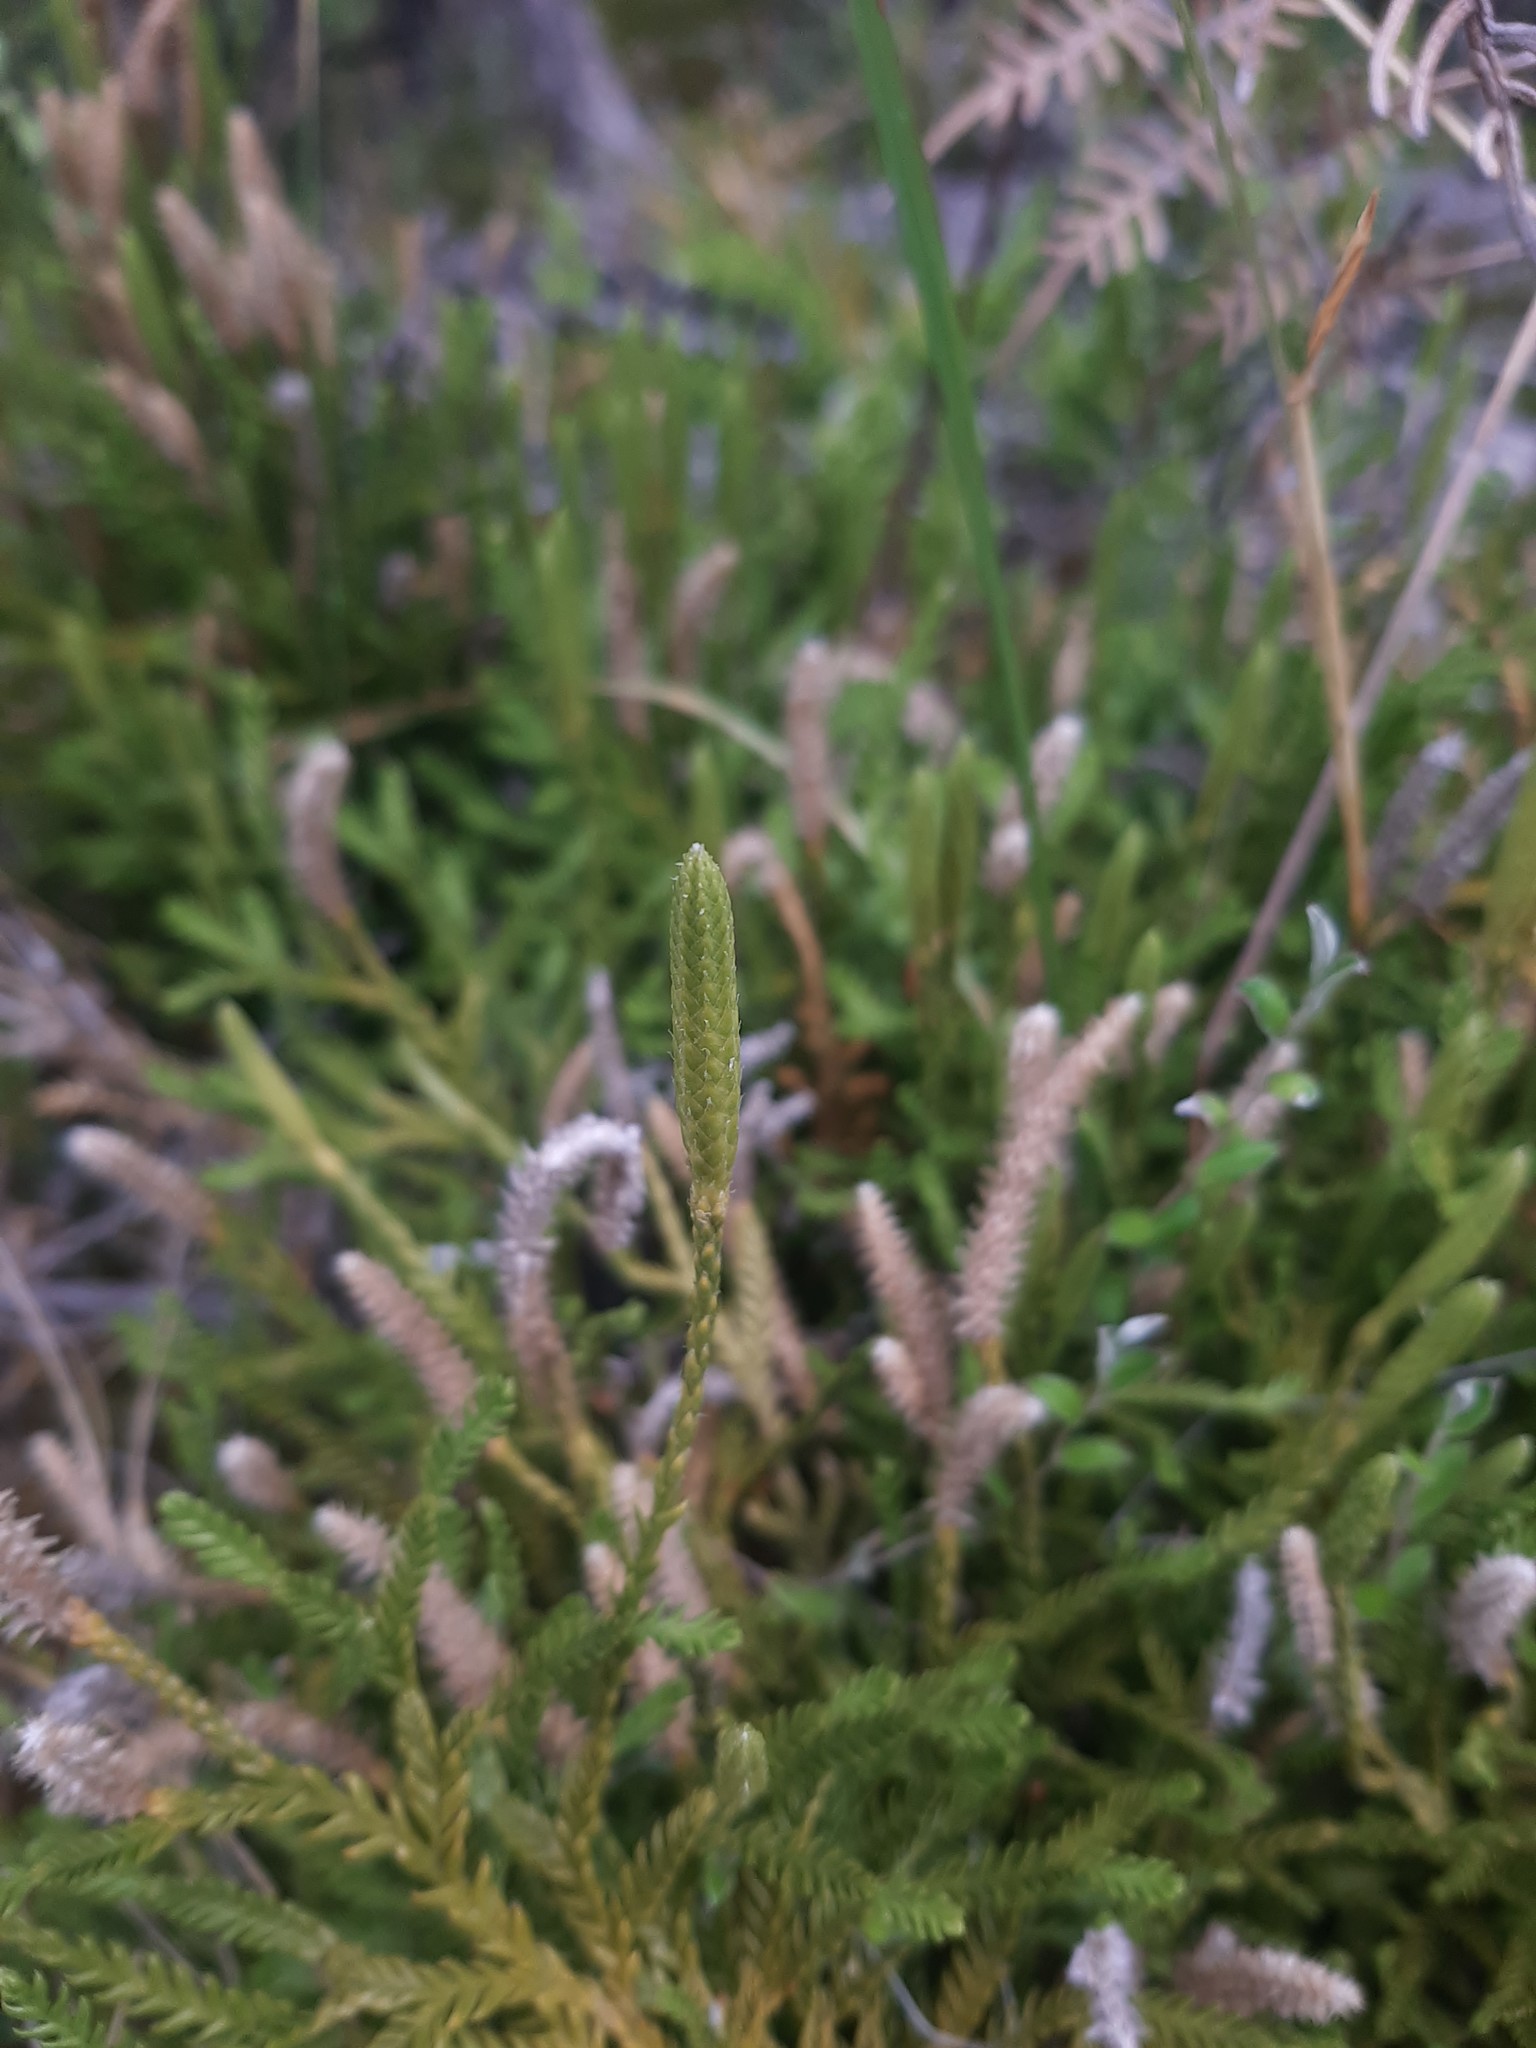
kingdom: Plantae
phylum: Tracheophyta
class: Lycopodiopsida
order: Lycopodiales
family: Lycopodiaceae
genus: Diphasium
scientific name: Diphasium scariosum
